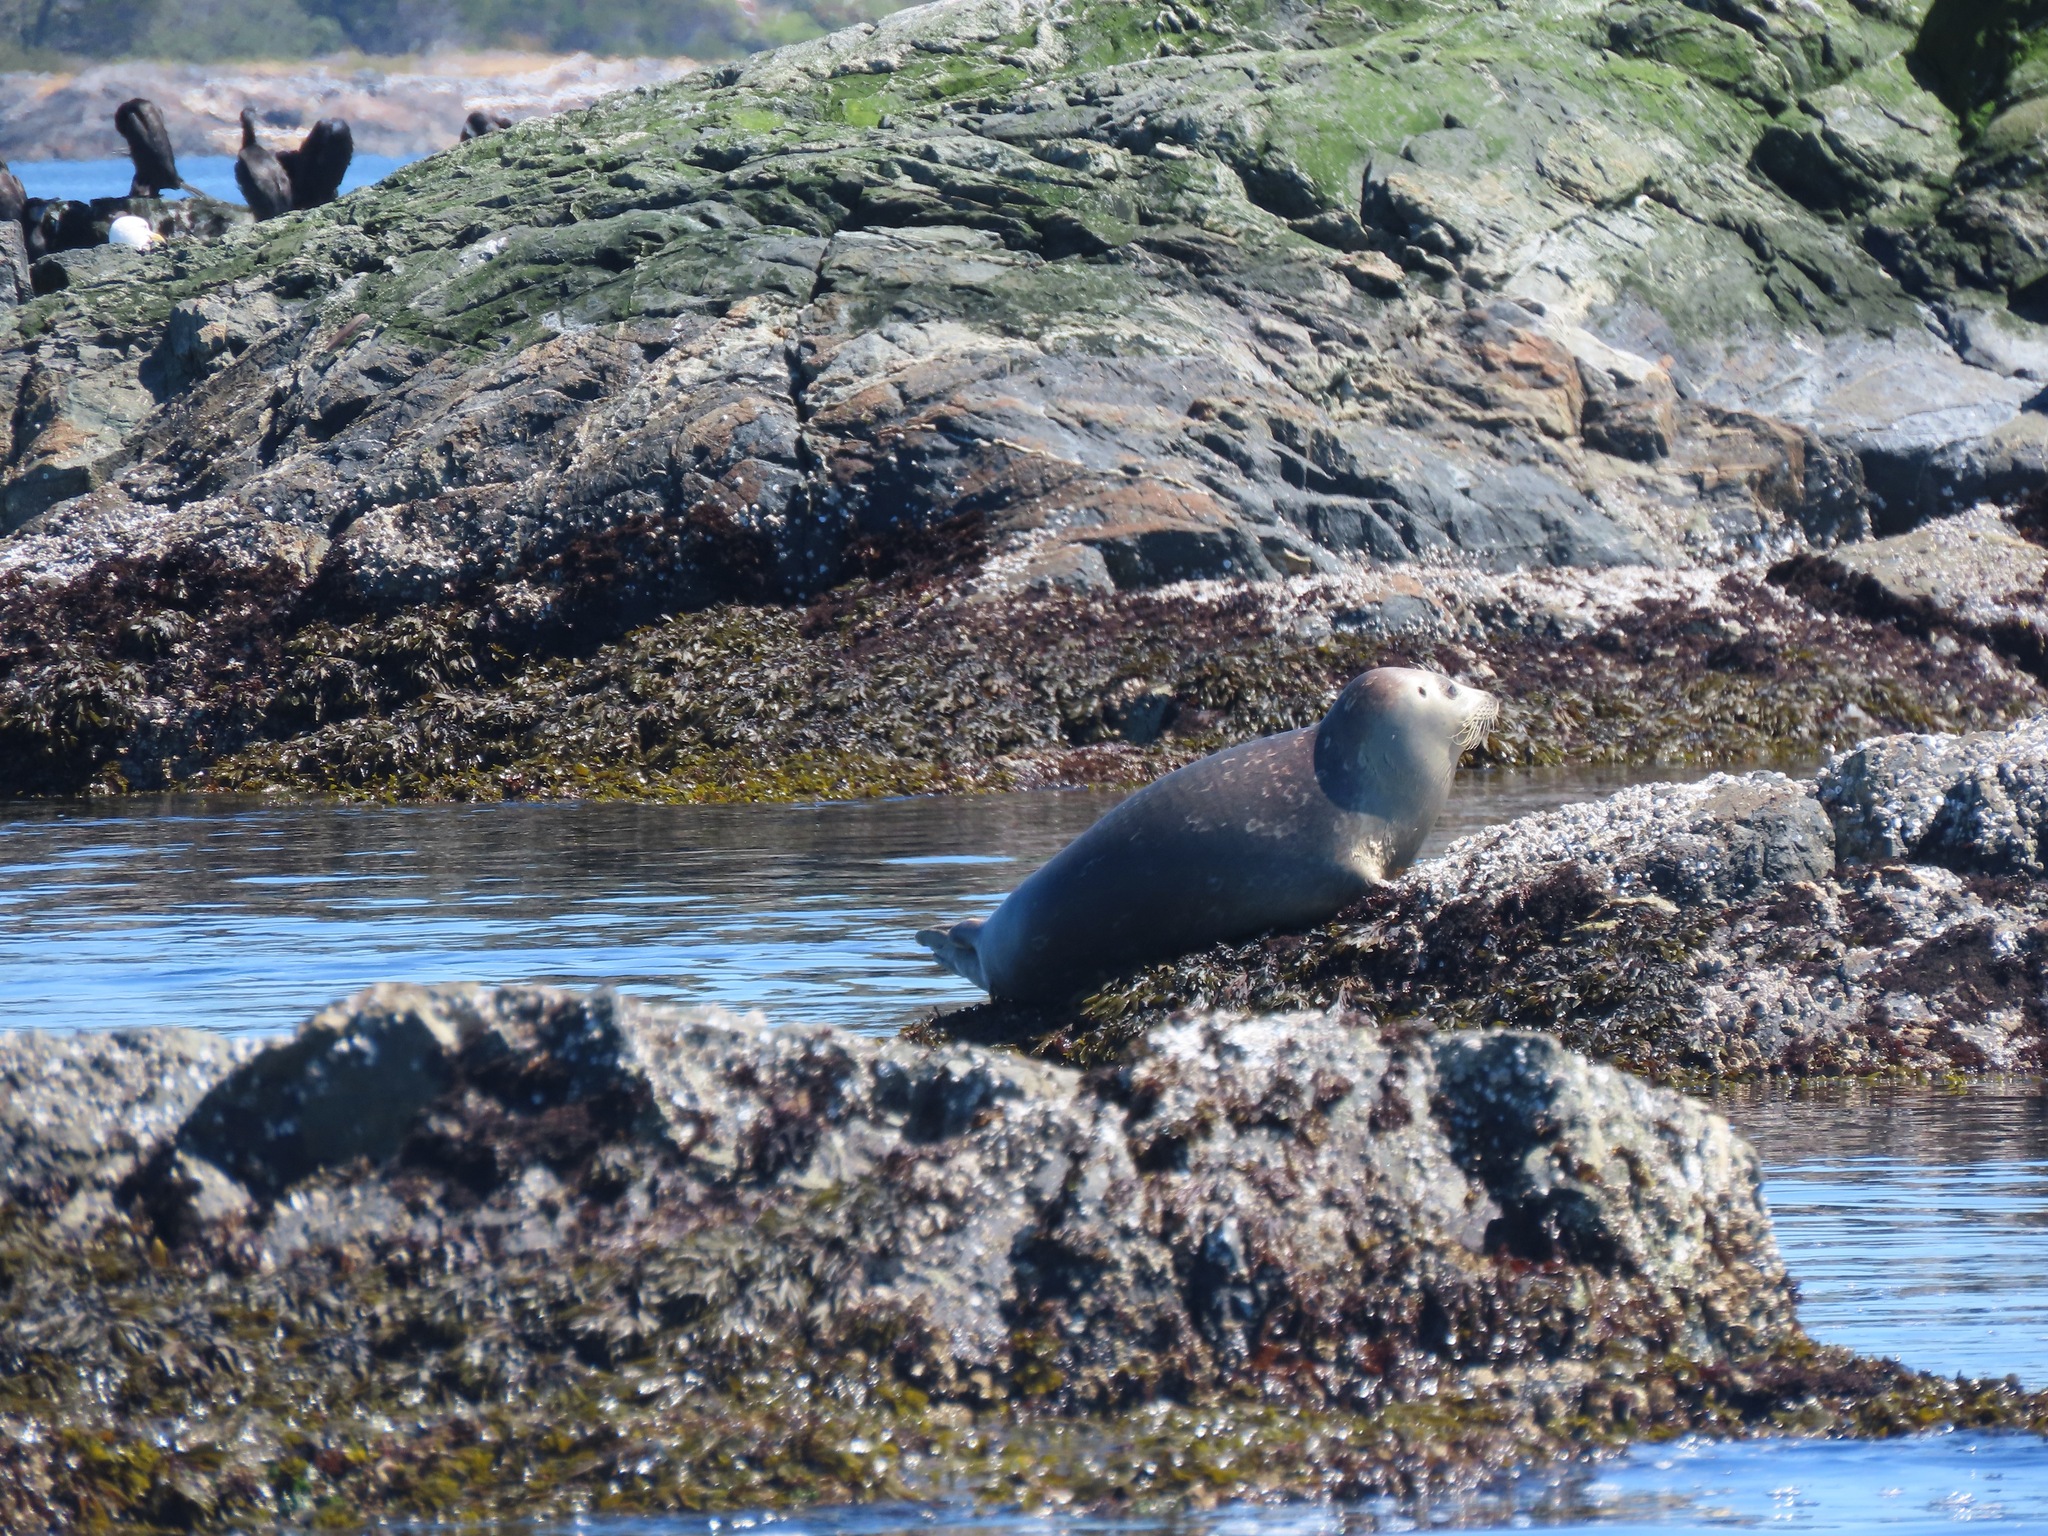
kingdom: Animalia
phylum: Chordata
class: Mammalia
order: Carnivora
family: Phocidae
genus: Phoca
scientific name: Phoca vitulina
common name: Harbor seal
